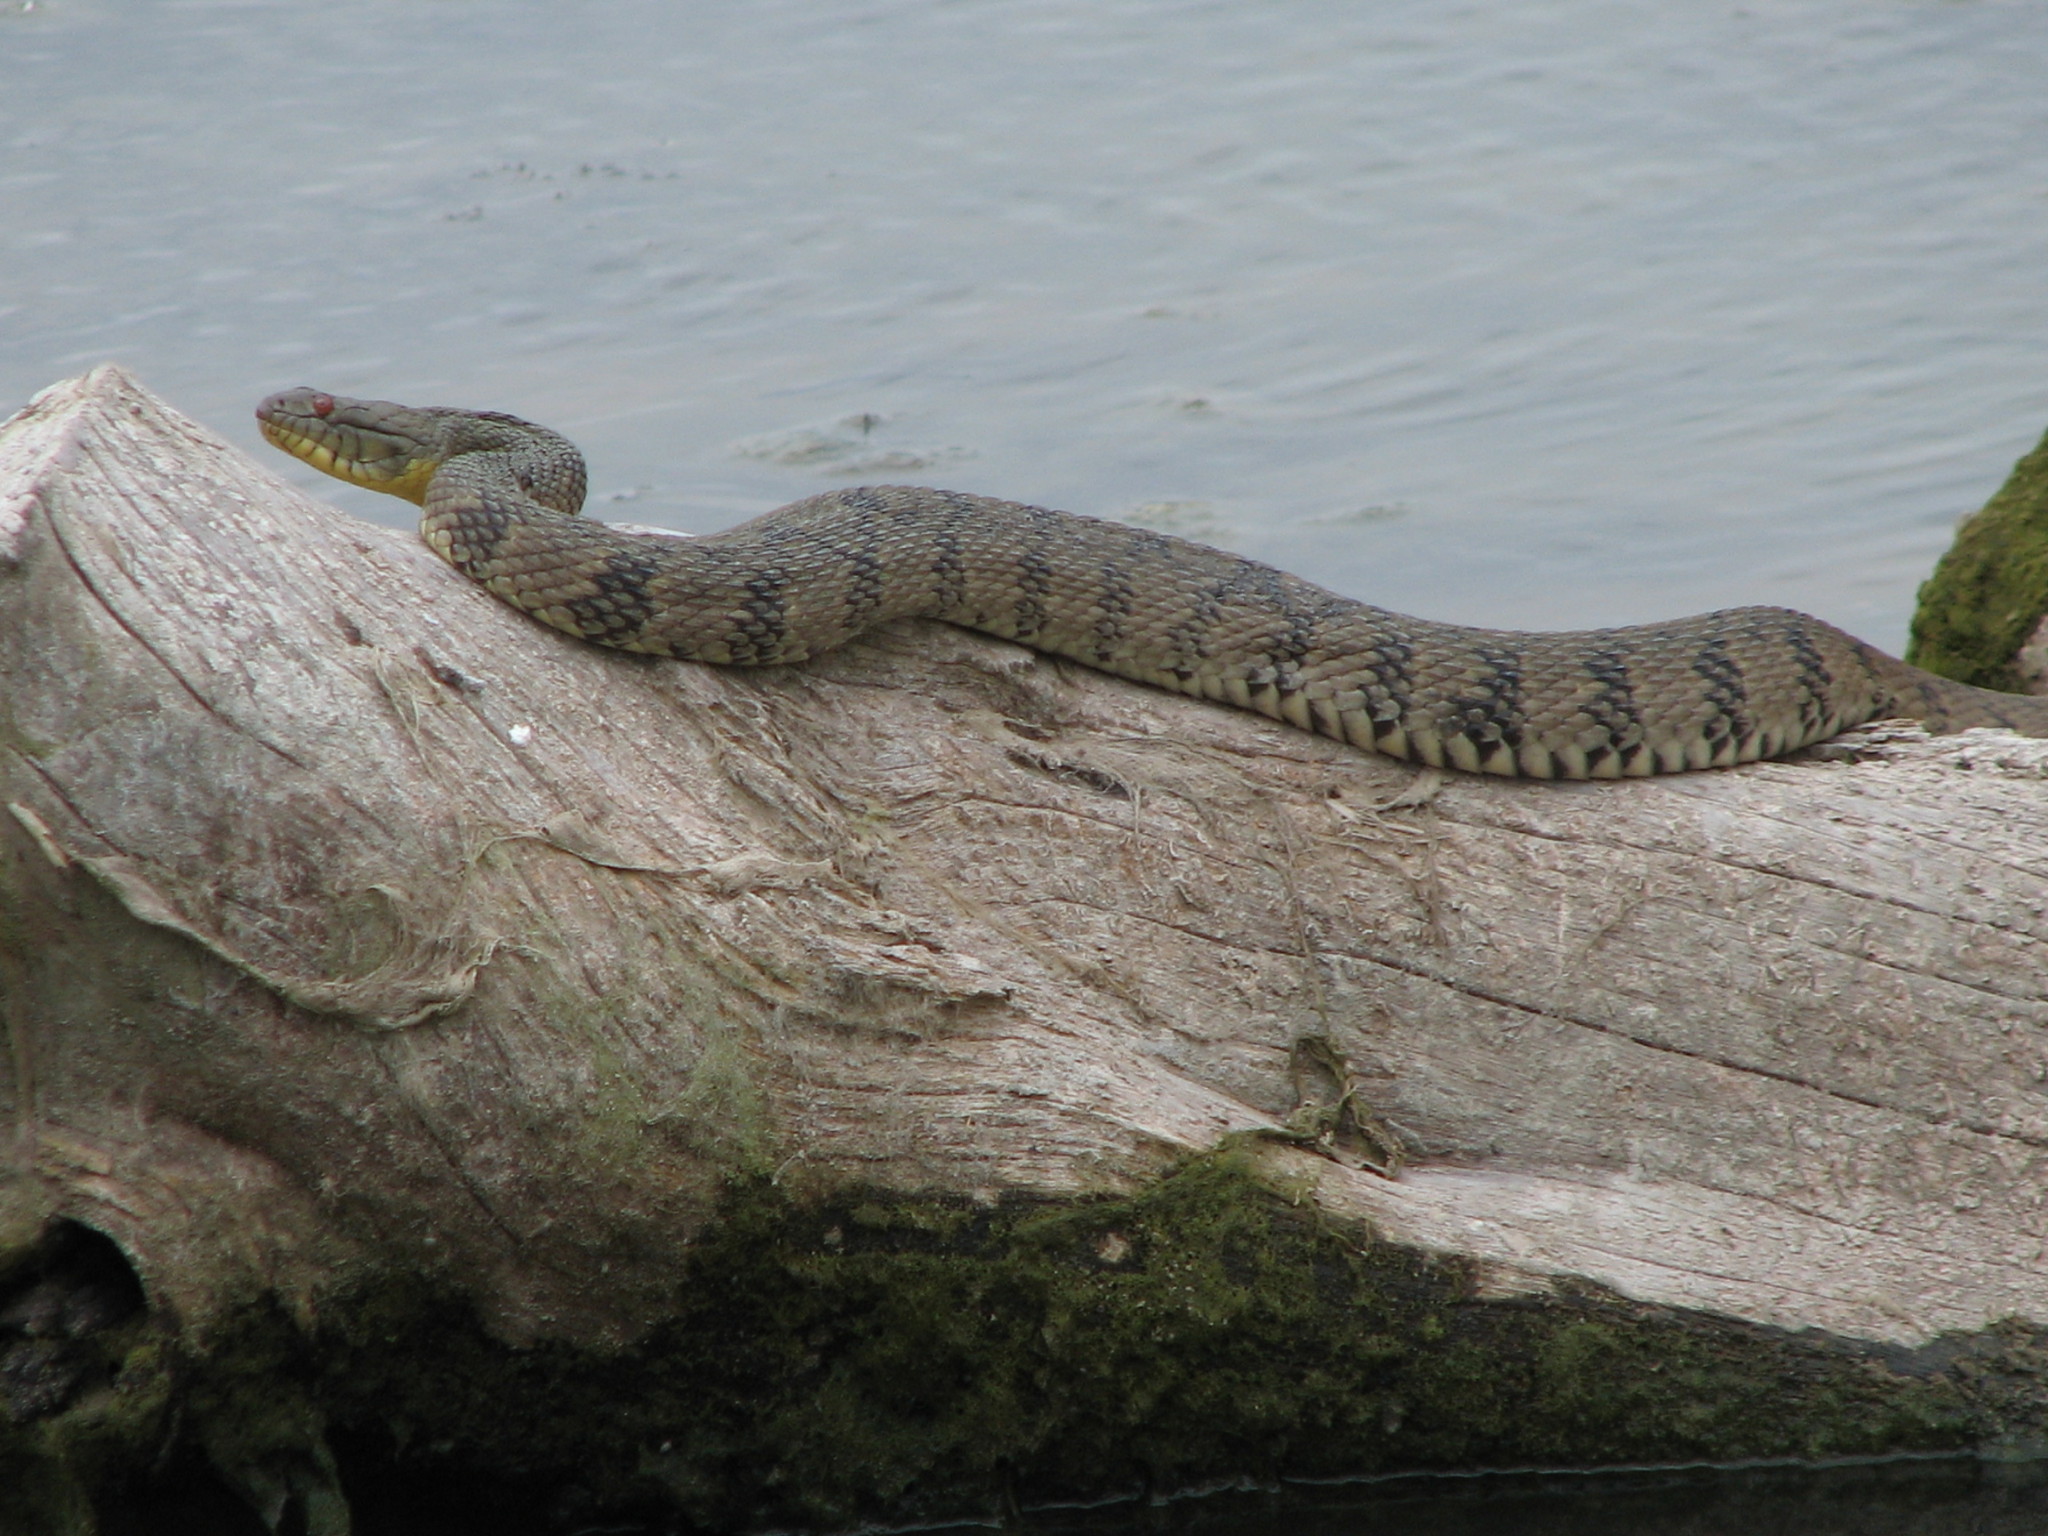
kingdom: Animalia
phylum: Chordata
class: Squamata
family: Colubridae
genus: Nerodia
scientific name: Nerodia rhombifer
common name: Diamondback water snake
